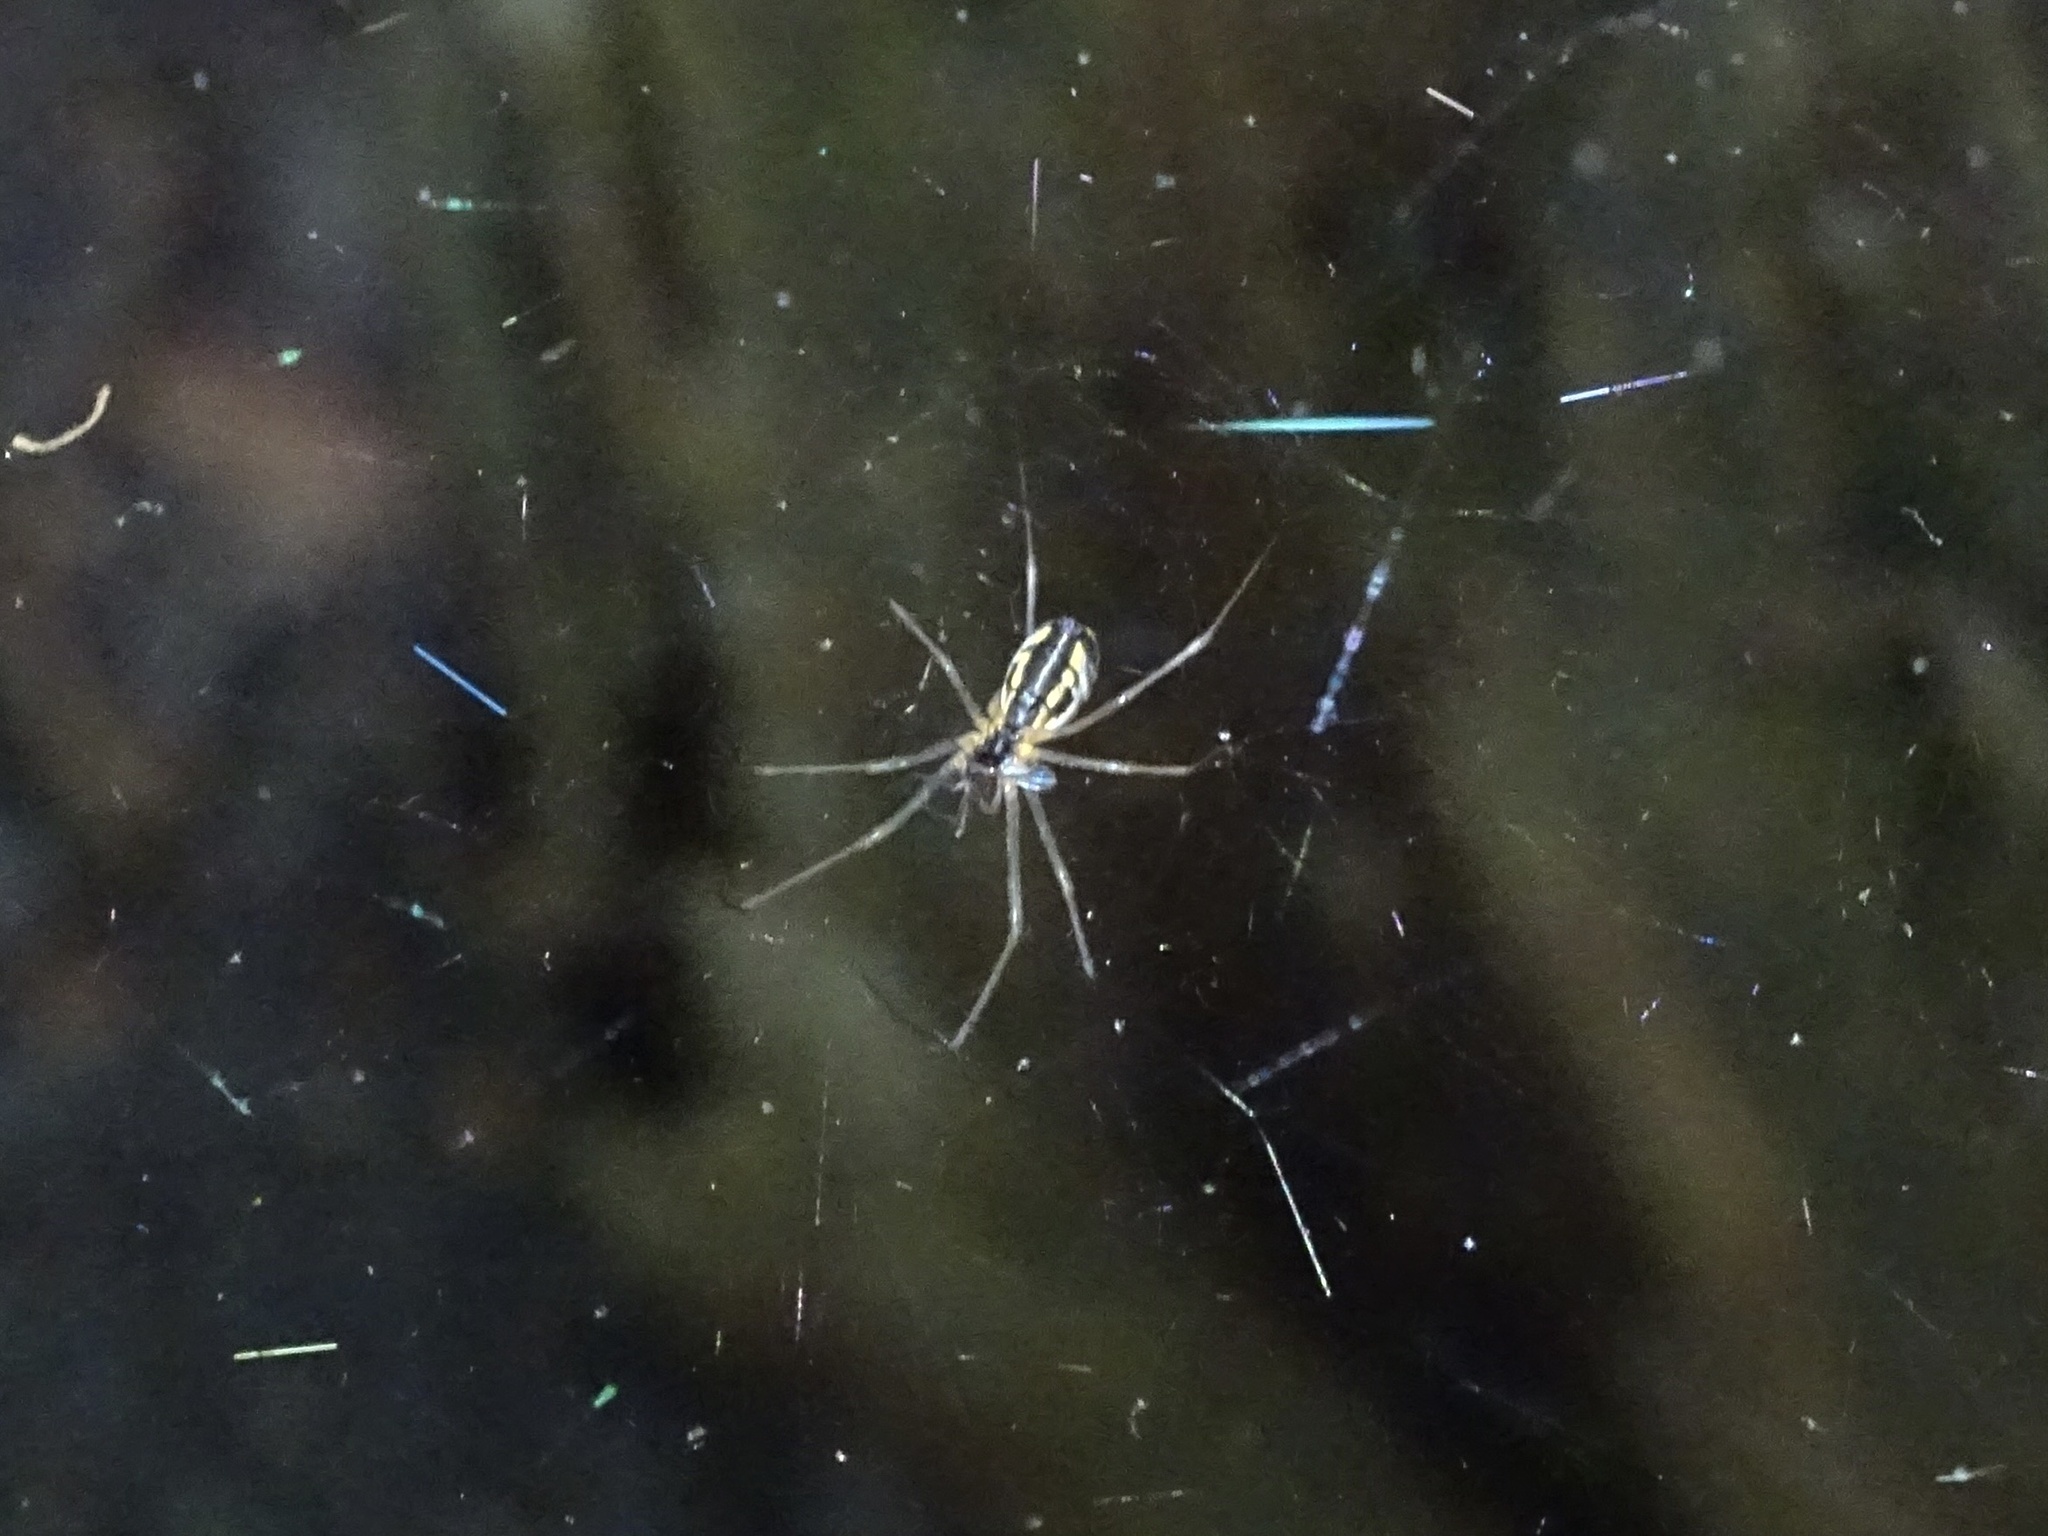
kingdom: Animalia
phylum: Arthropoda
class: Arachnida
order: Araneae
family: Linyphiidae
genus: Neriene
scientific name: Neriene radiata
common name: Filmy dome spider
